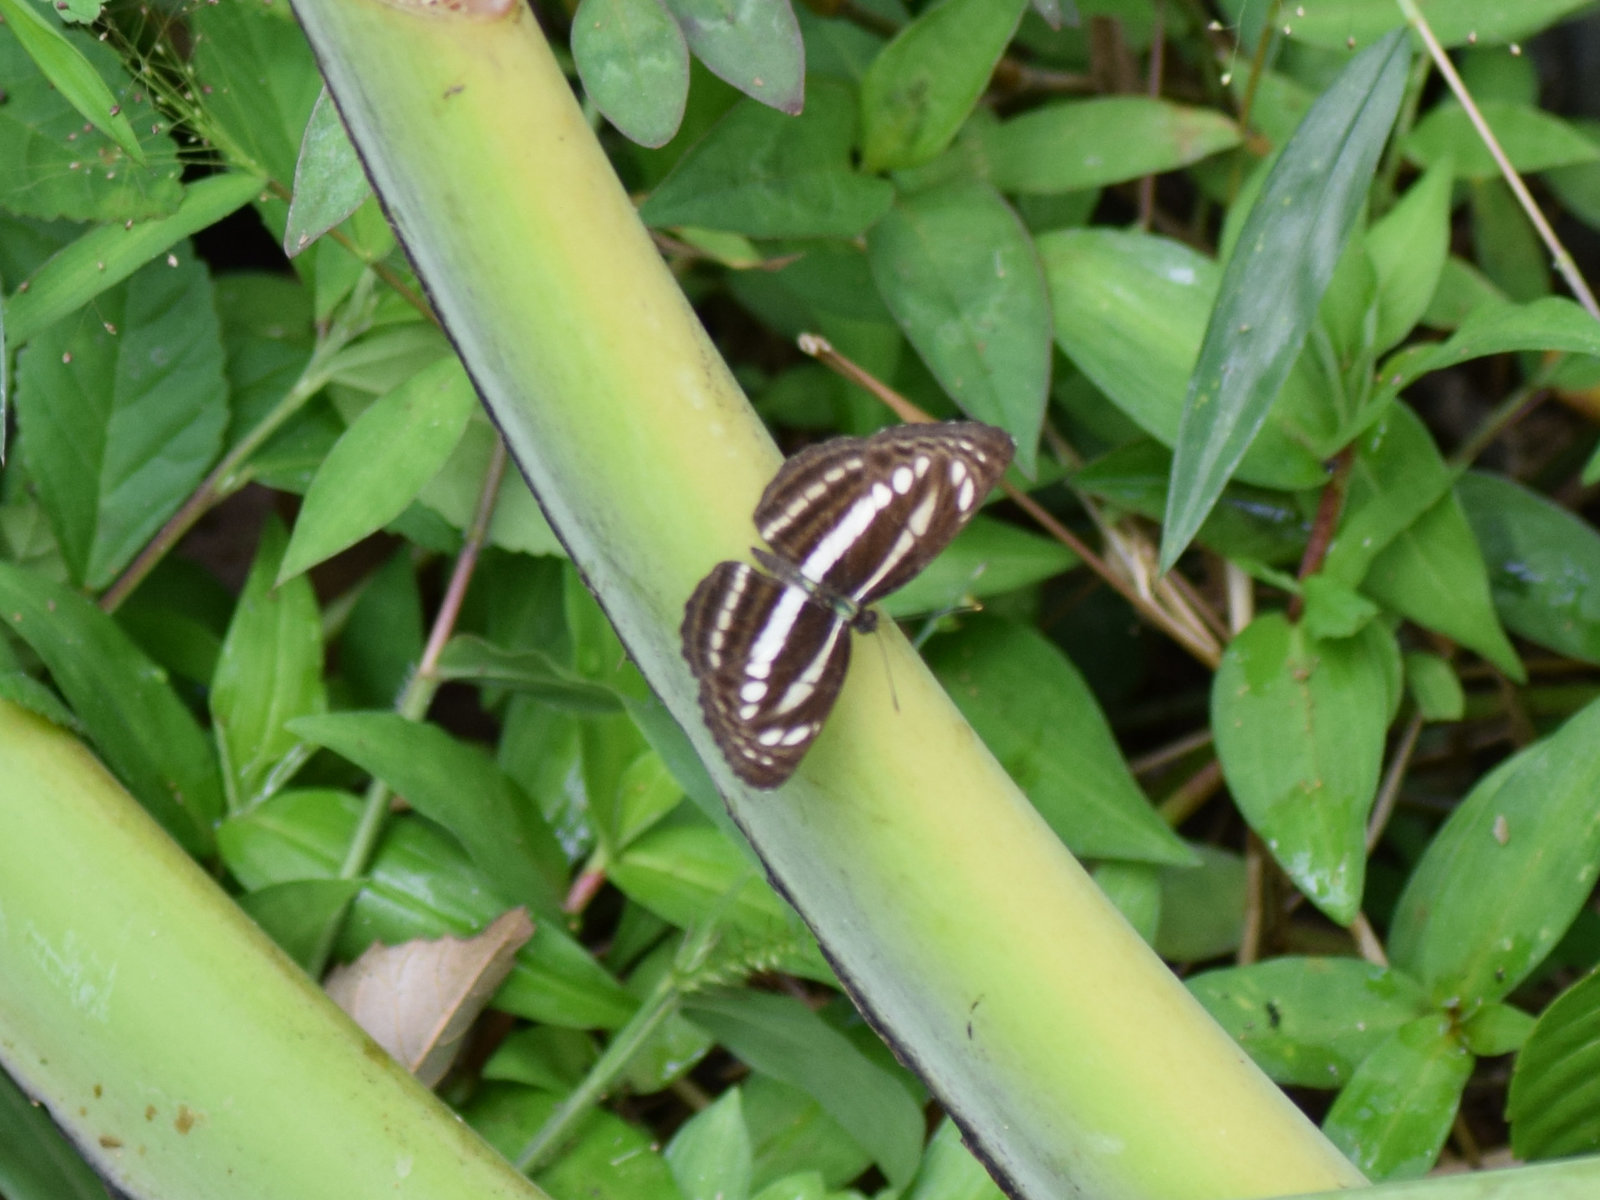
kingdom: Animalia
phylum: Arthropoda
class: Insecta
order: Lepidoptera
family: Nymphalidae
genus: Neptis
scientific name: Neptis clinia
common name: Southern sullied sailer
